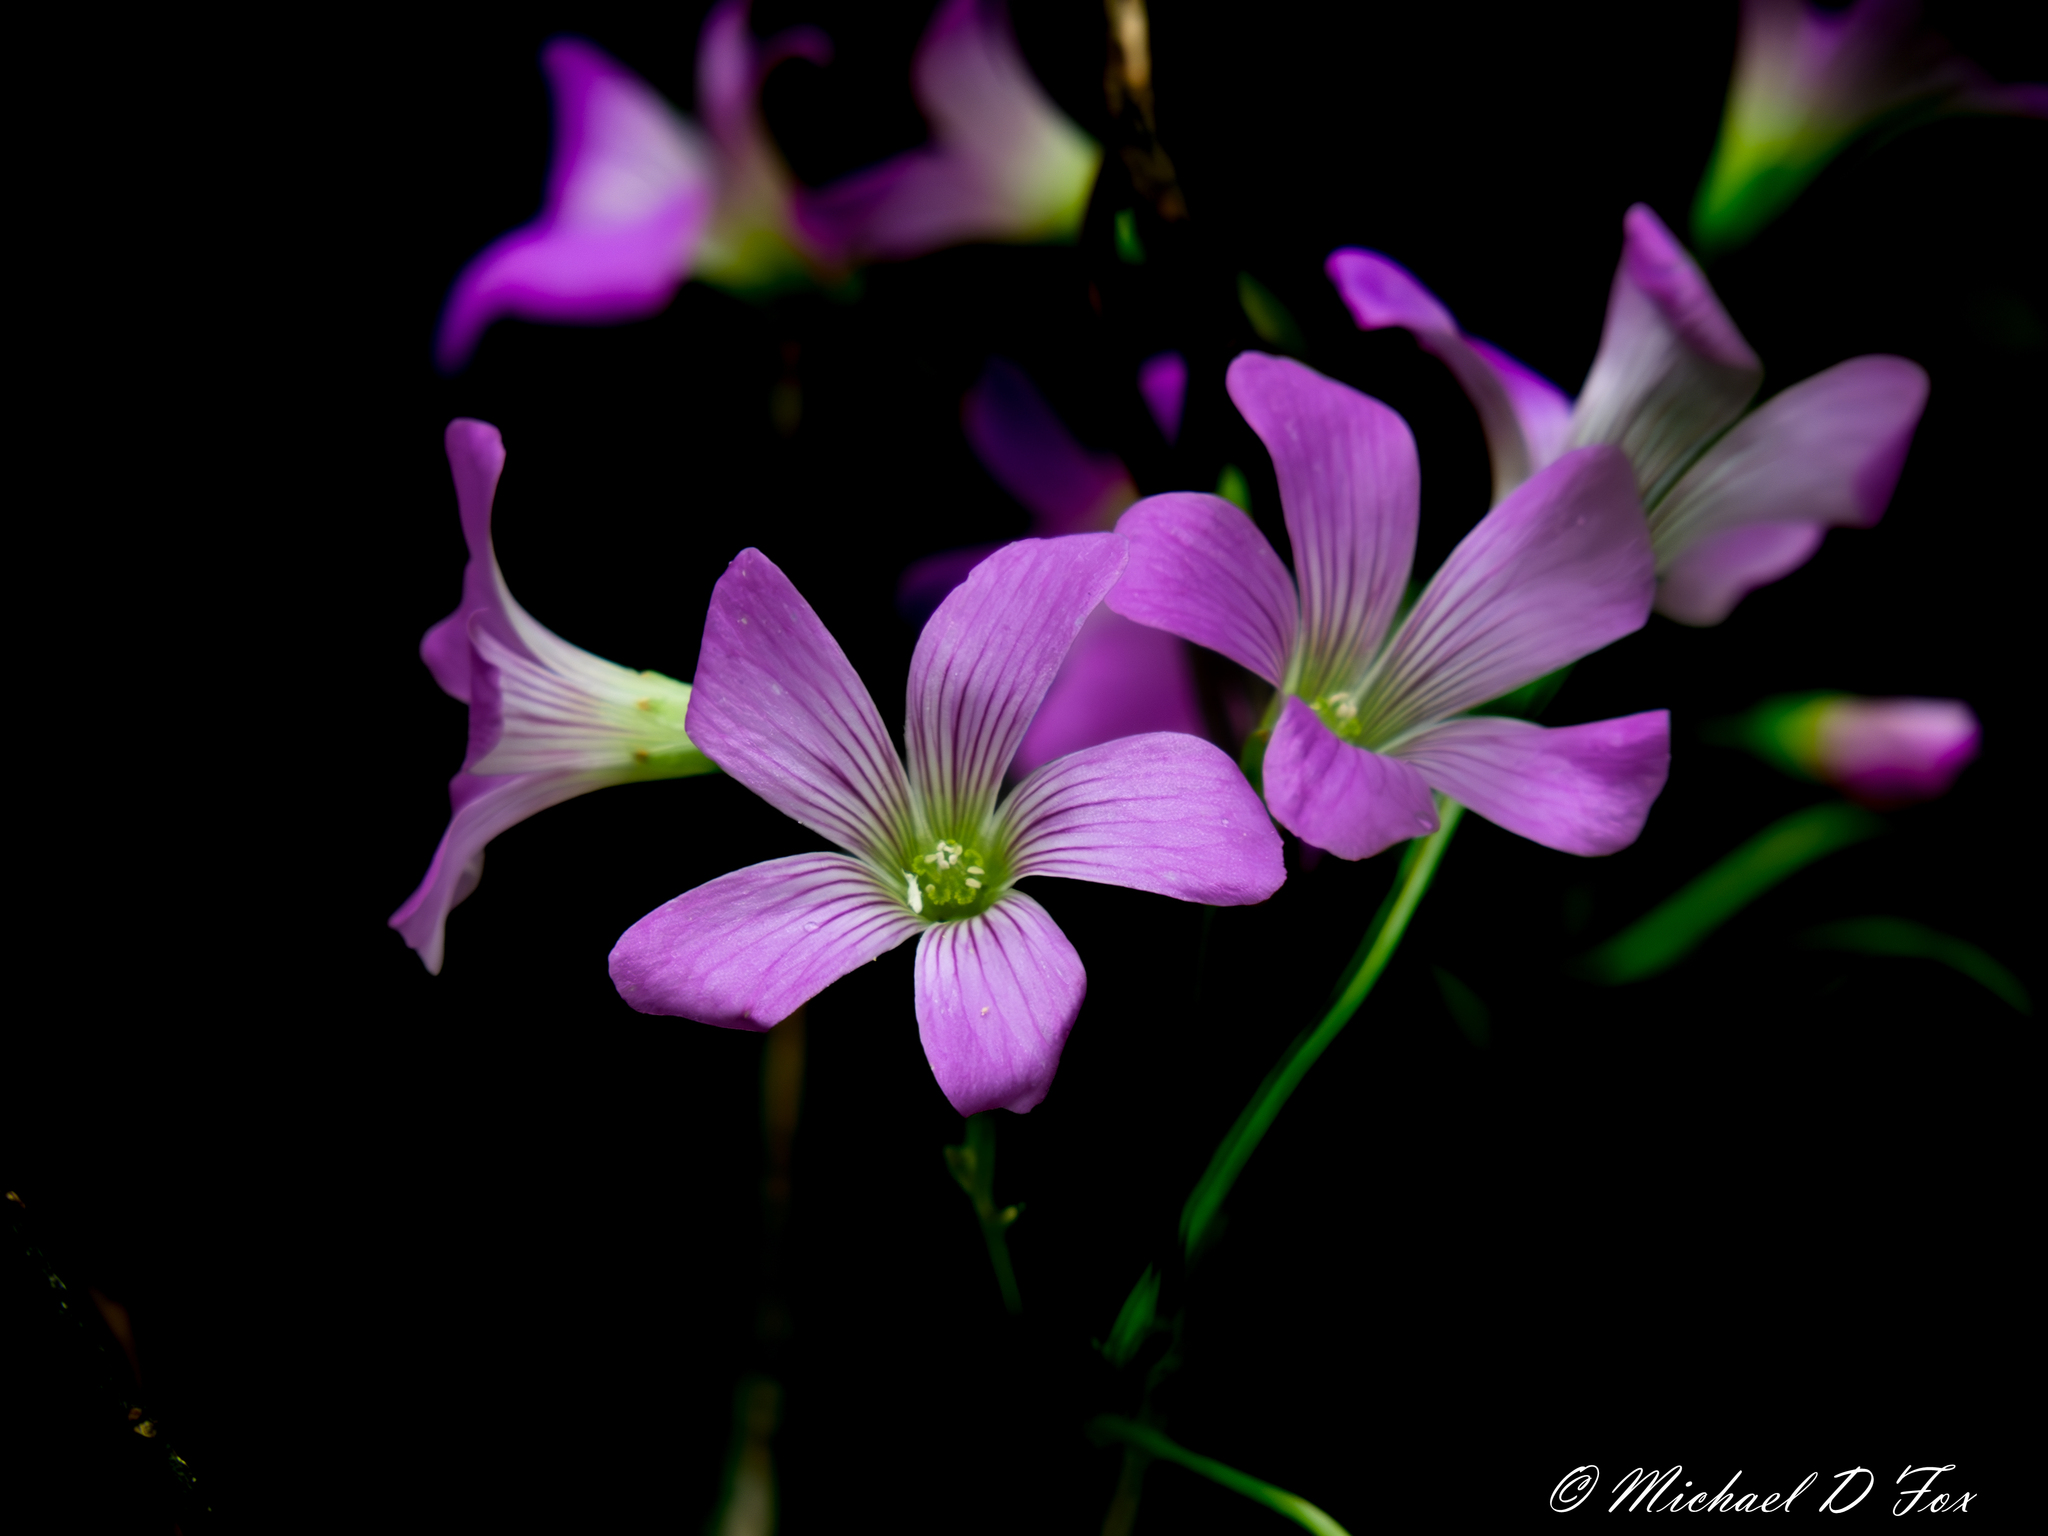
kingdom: Plantae
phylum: Tracheophyta
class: Magnoliopsida
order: Oxalidales
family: Oxalidaceae
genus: Oxalis
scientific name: Oxalis debilis
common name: Large-flowered pink-sorrel
